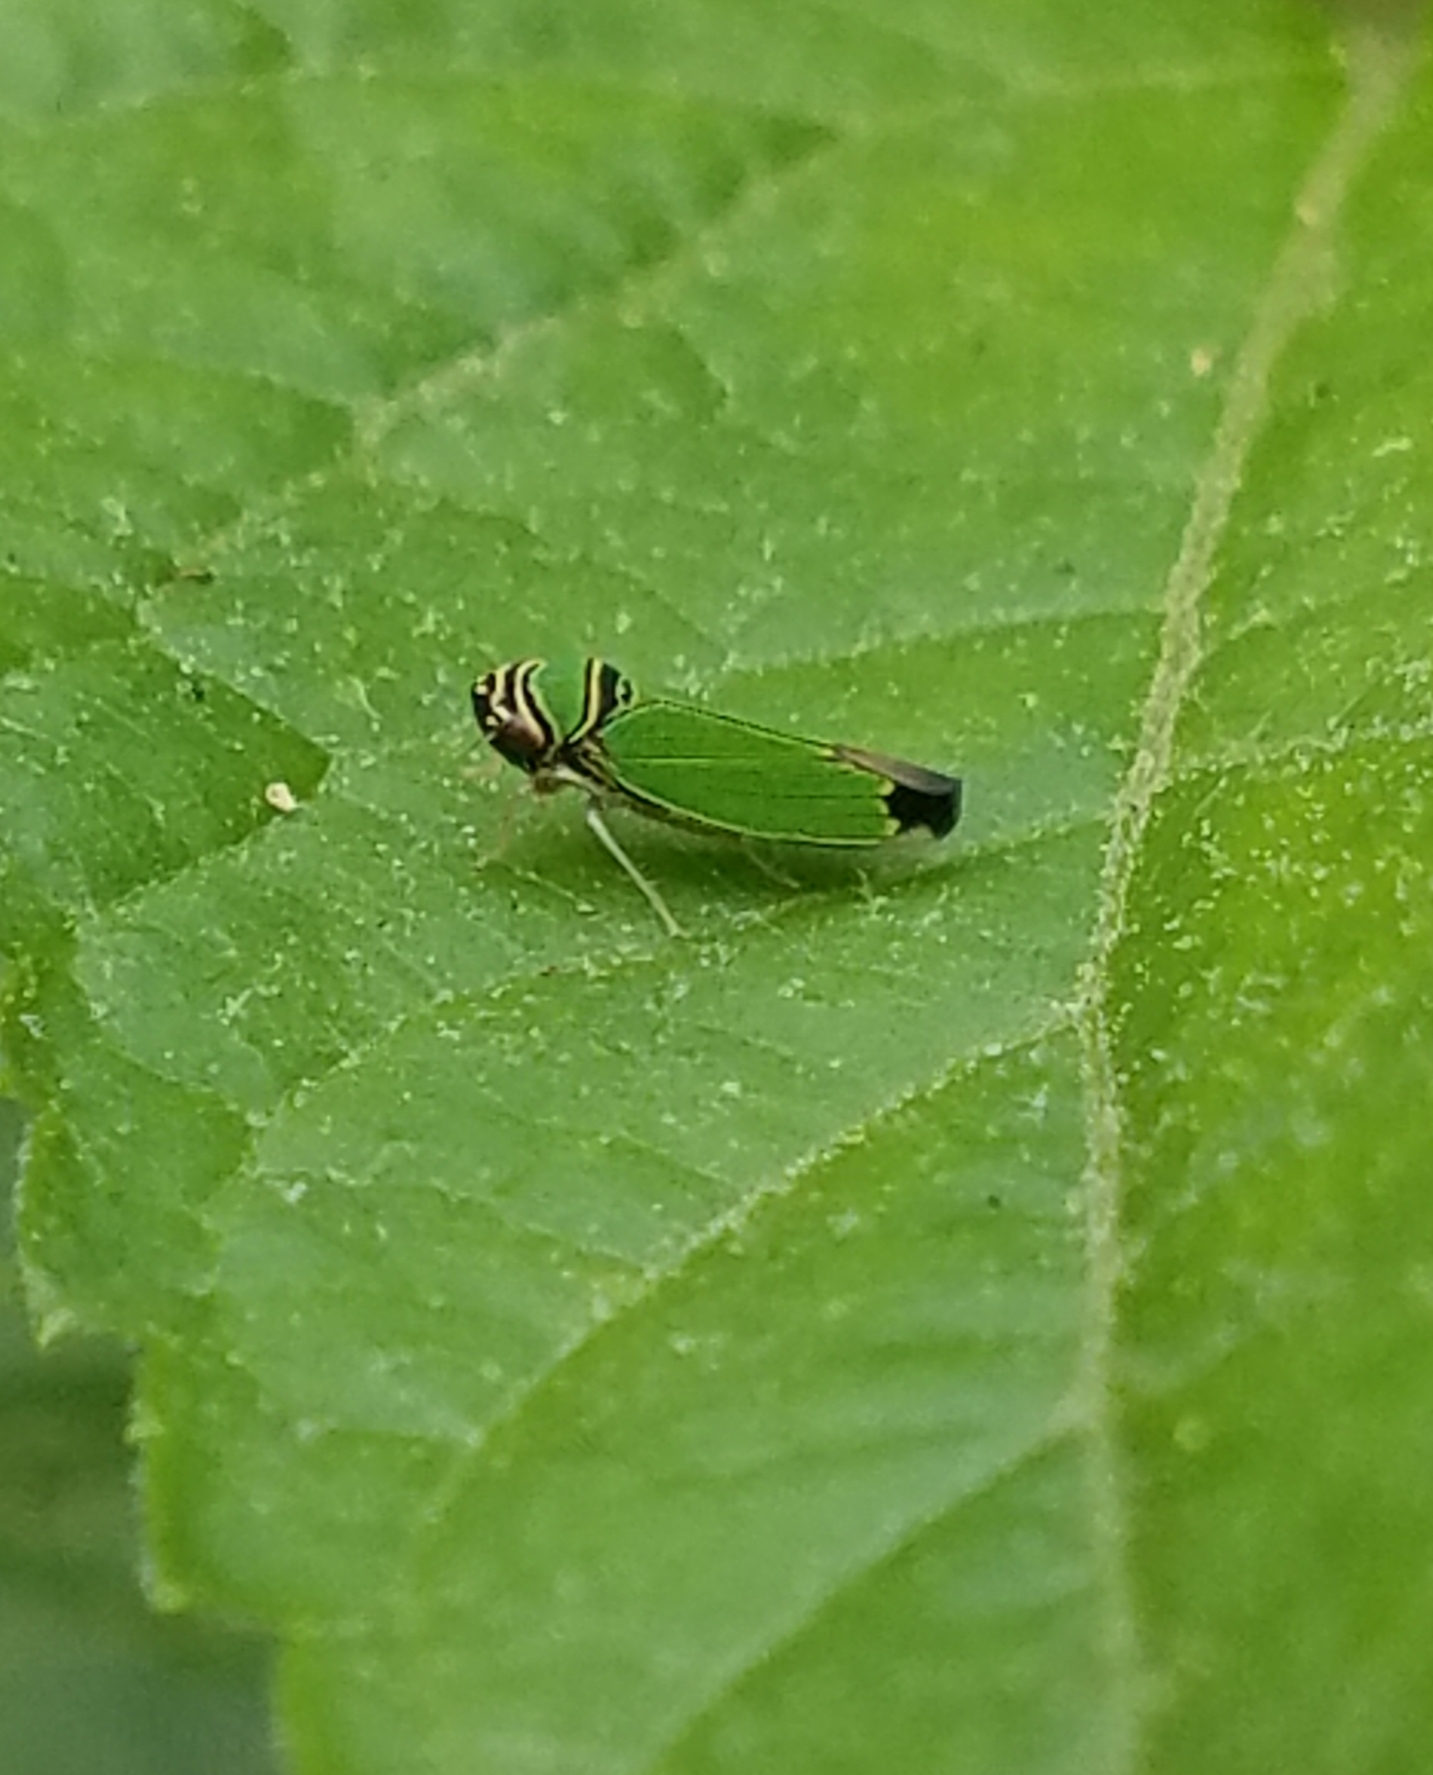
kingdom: Animalia
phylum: Arthropoda
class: Insecta
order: Hemiptera
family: Cicadellidae
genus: Tylozygus
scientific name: Tylozygus geometricus
